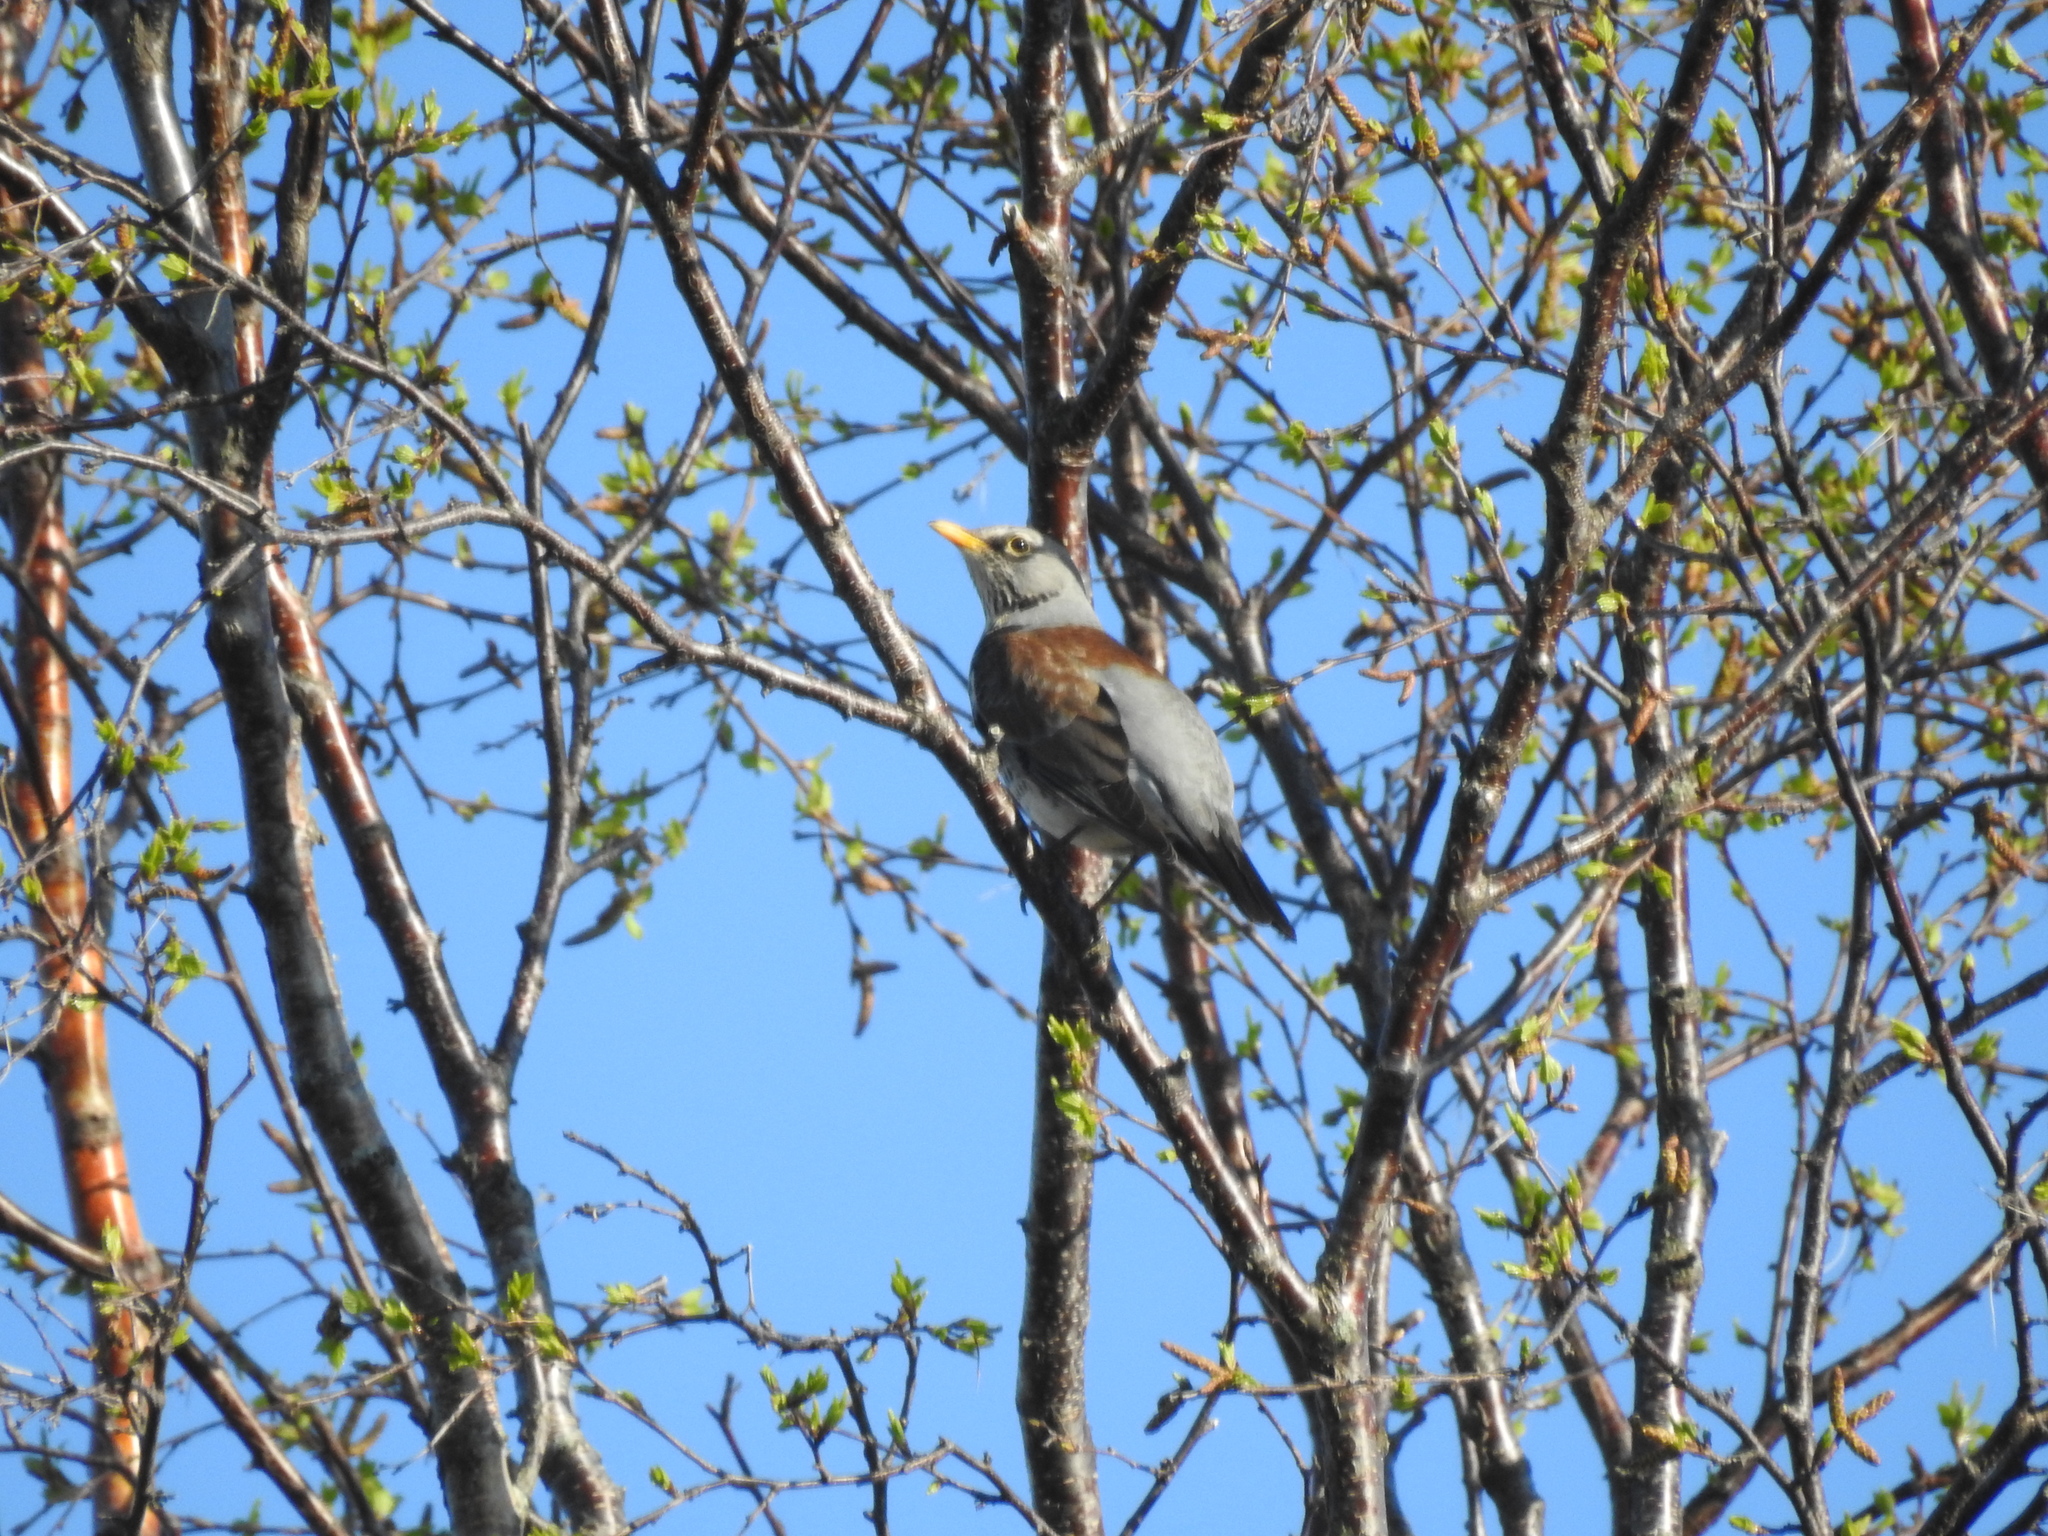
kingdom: Animalia
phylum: Chordata
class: Aves
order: Passeriformes
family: Turdidae
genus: Turdus
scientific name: Turdus pilaris
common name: Fieldfare
